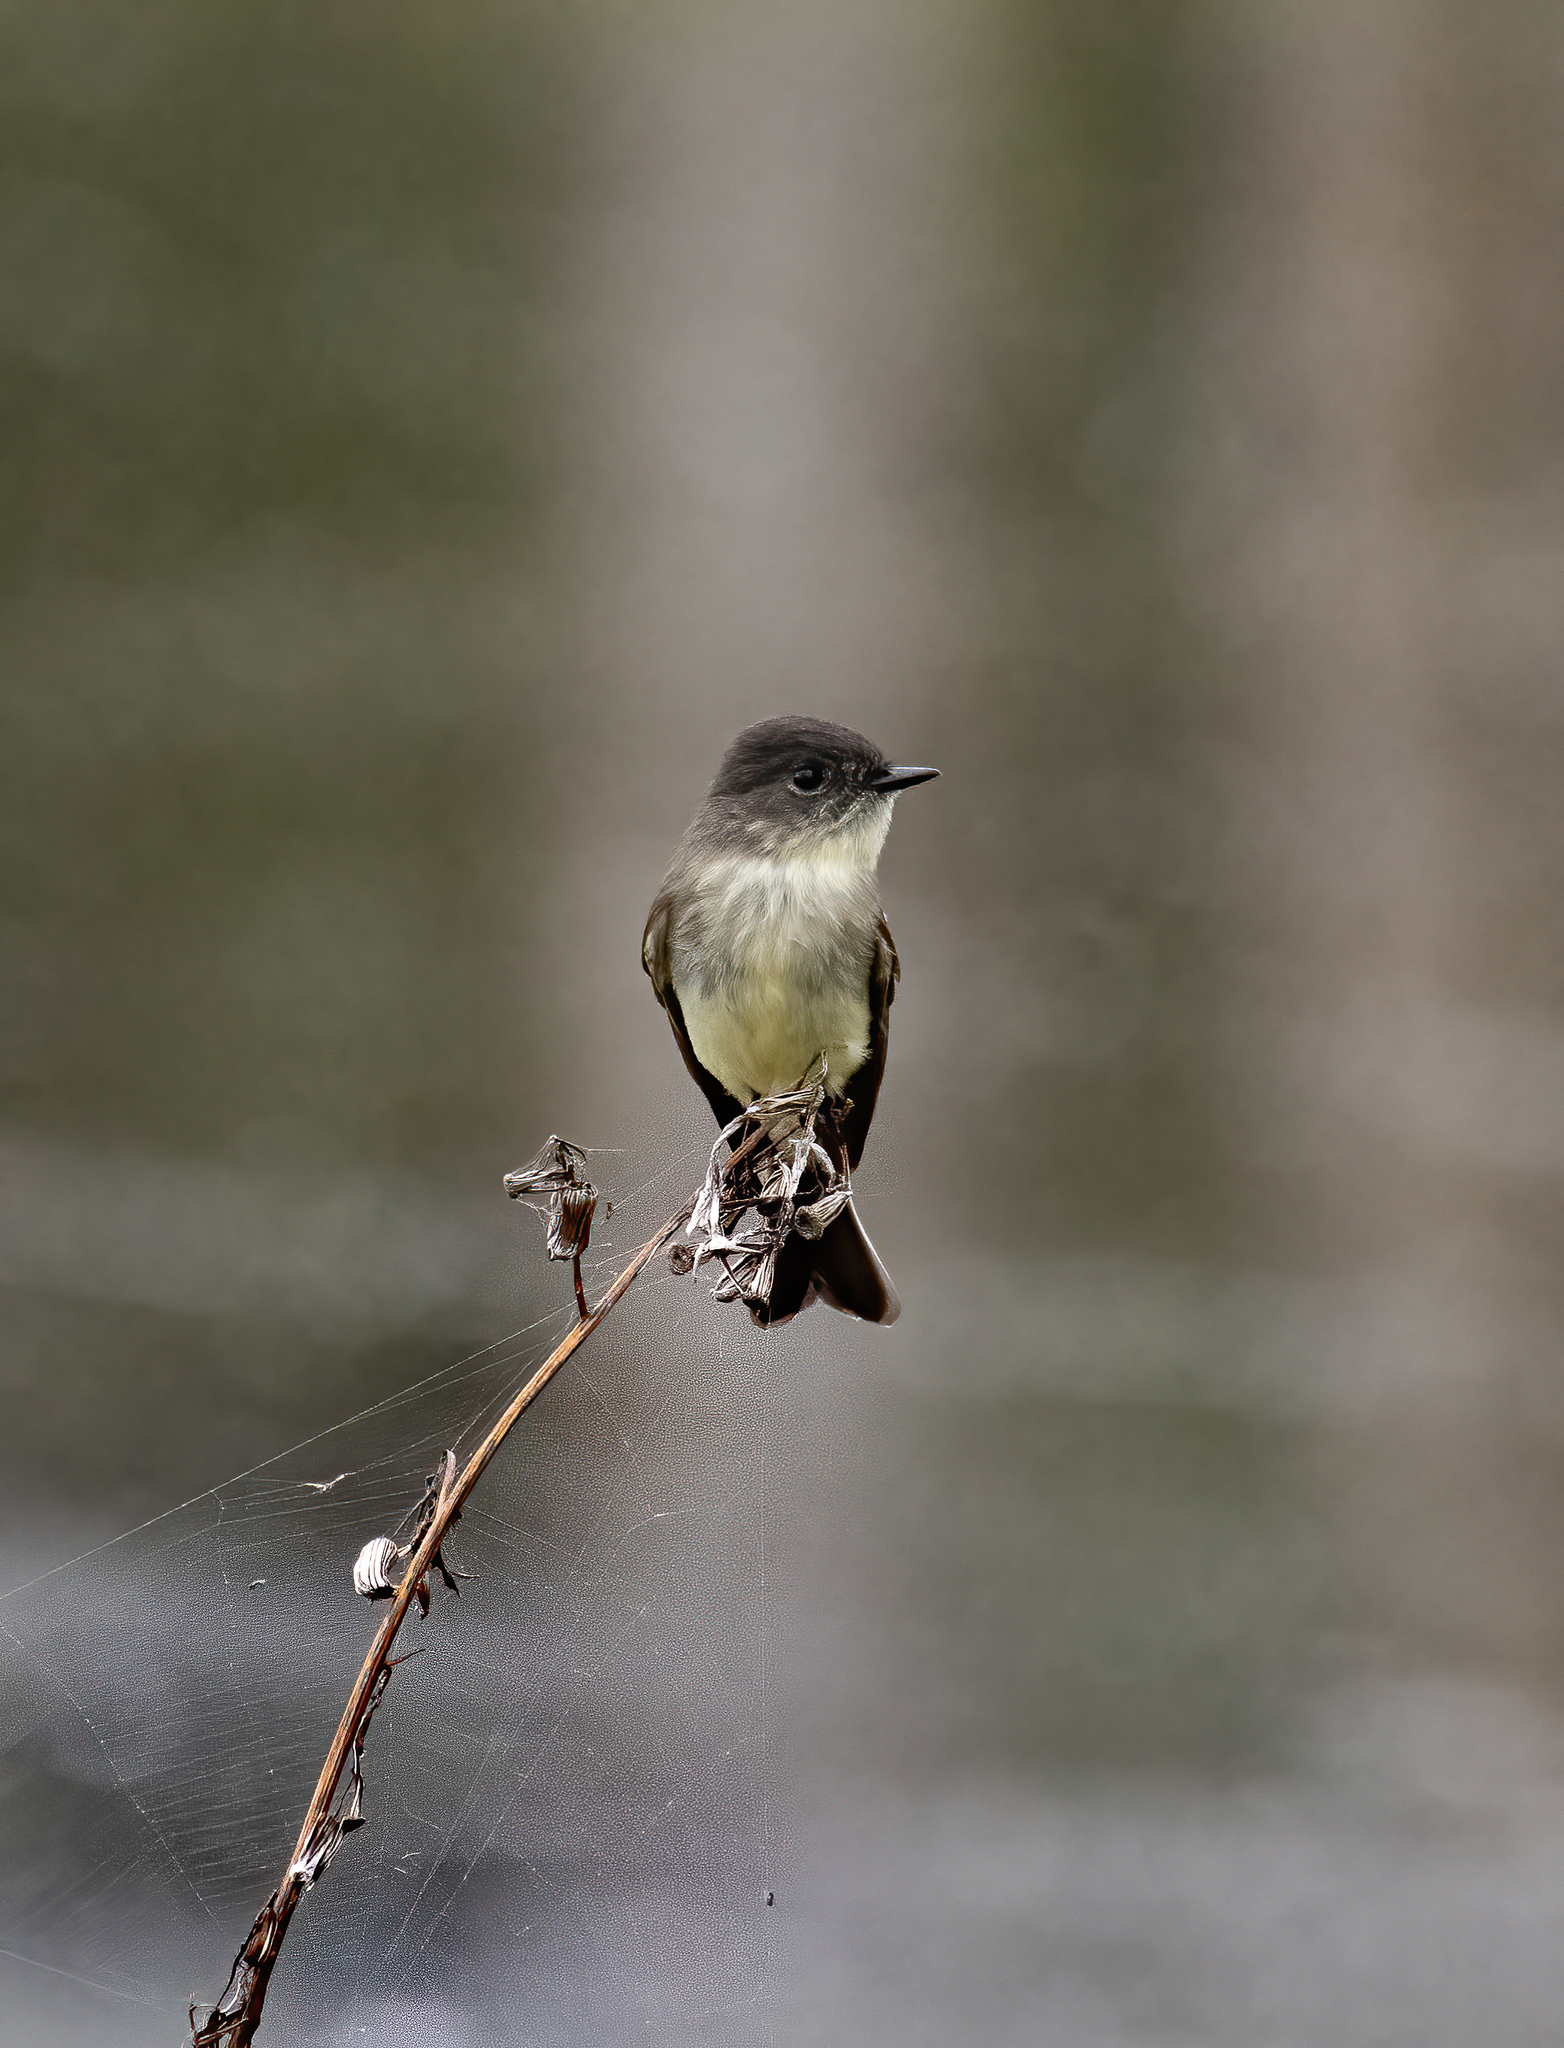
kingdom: Animalia
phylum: Chordata
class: Aves
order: Passeriformes
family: Tyrannidae
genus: Sayornis
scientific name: Sayornis phoebe
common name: Eastern phoebe
